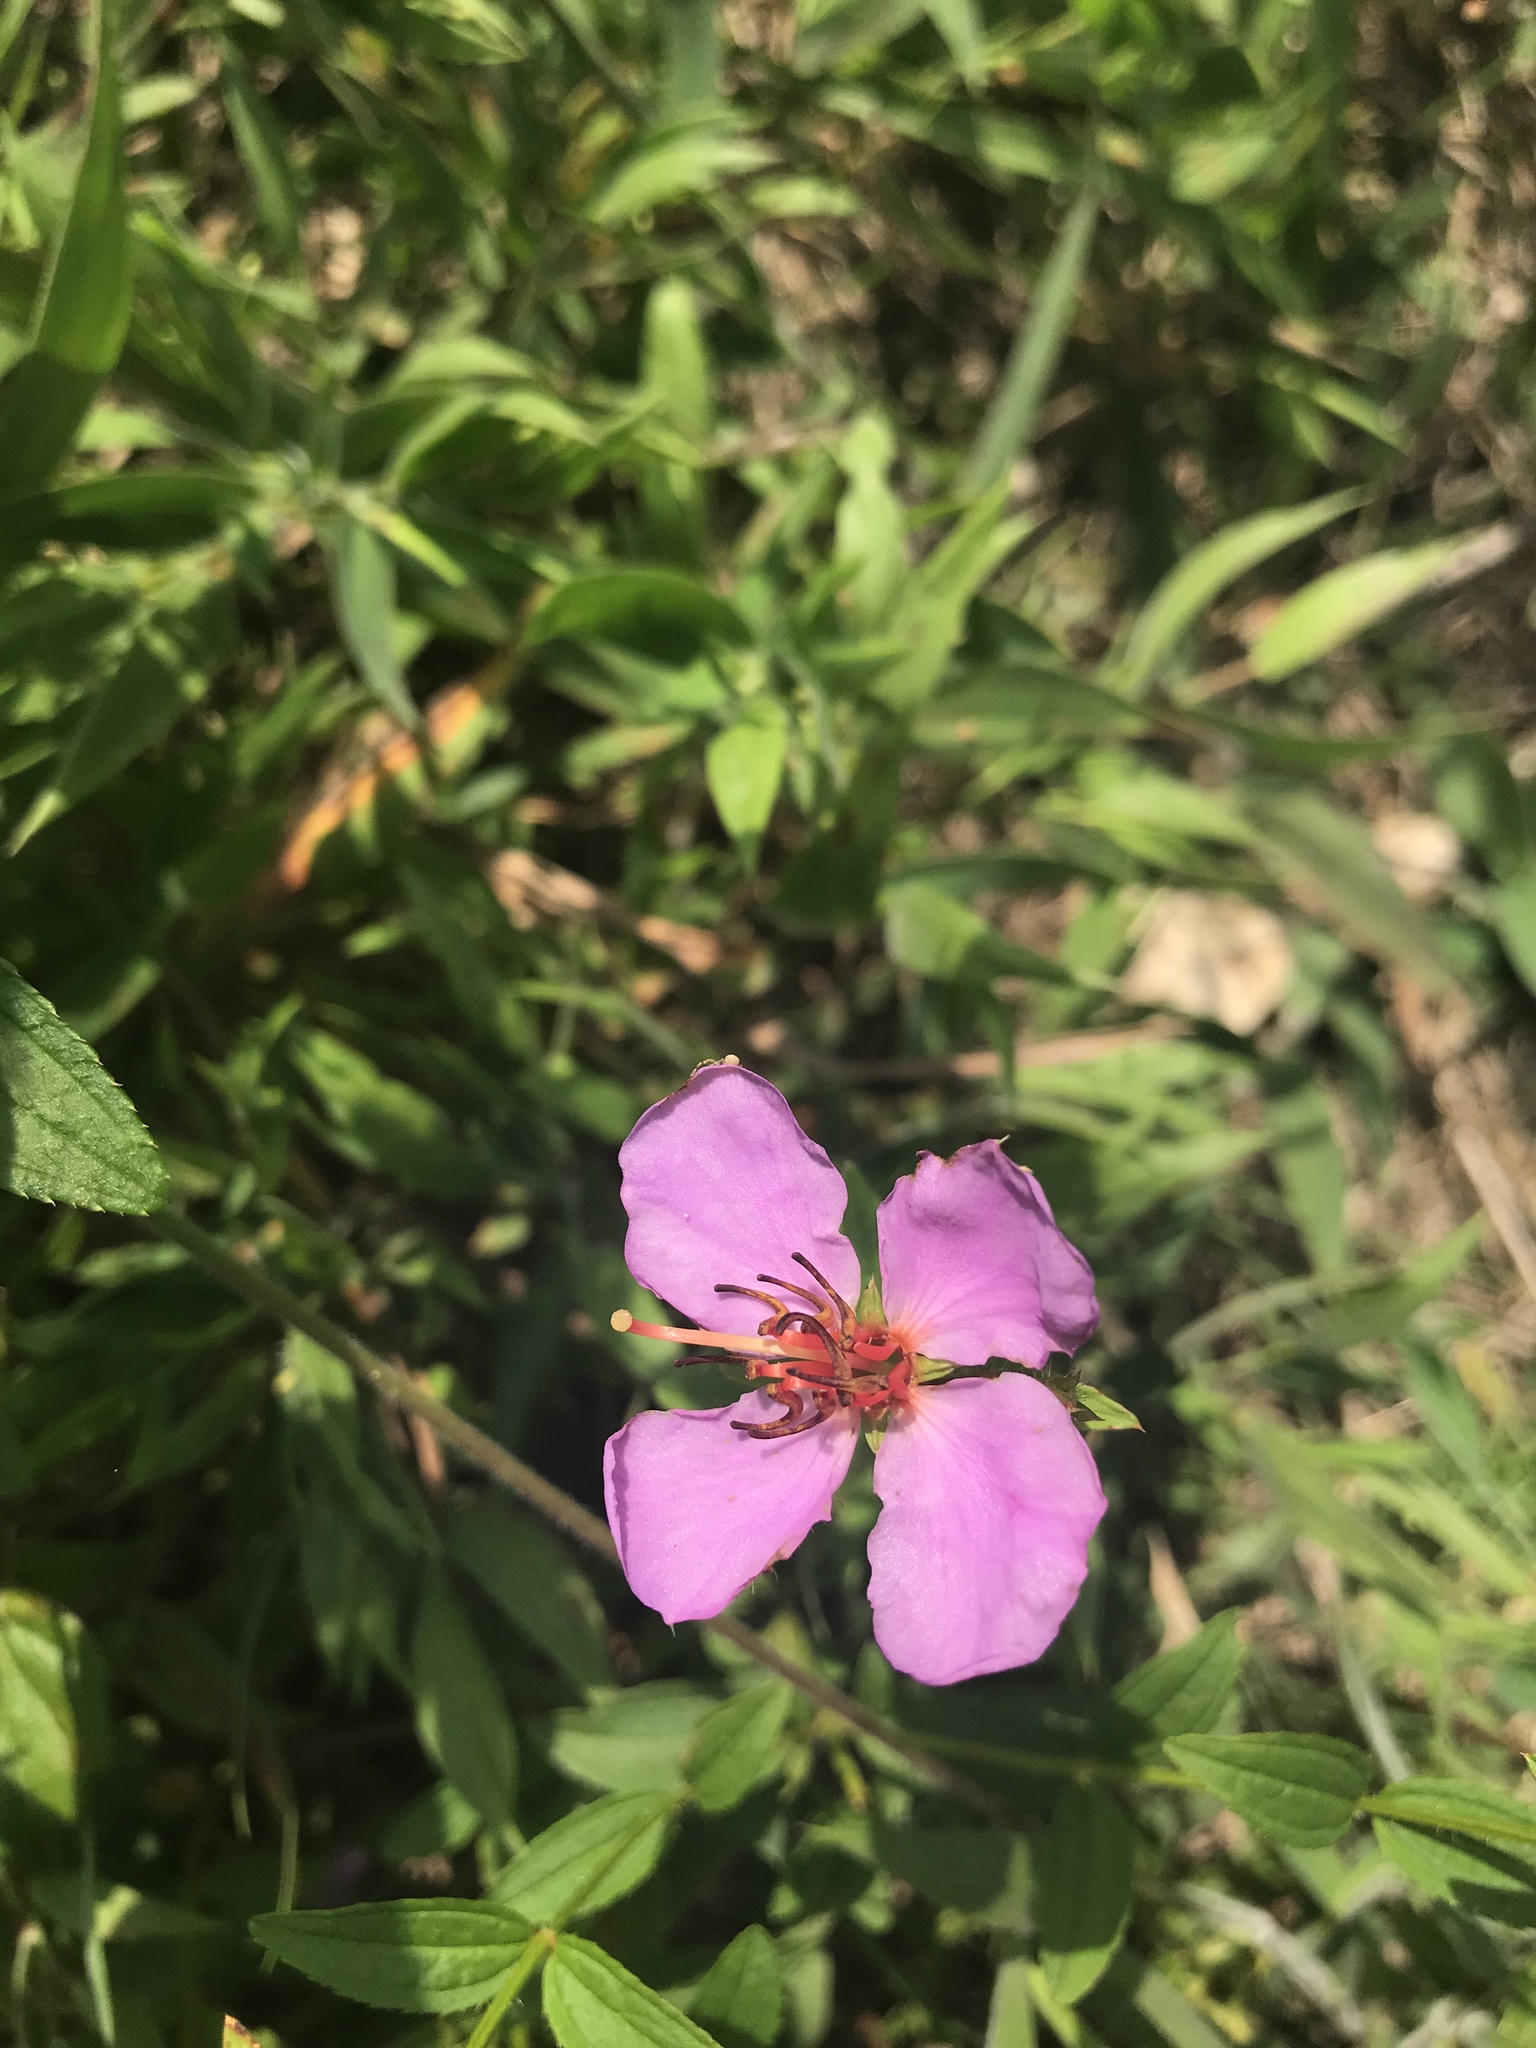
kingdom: Plantae
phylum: Tracheophyta
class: Magnoliopsida
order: Myrtales
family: Melastomataceae
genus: Rhexia
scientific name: Rhexia virginica
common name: Common meadow beauty
